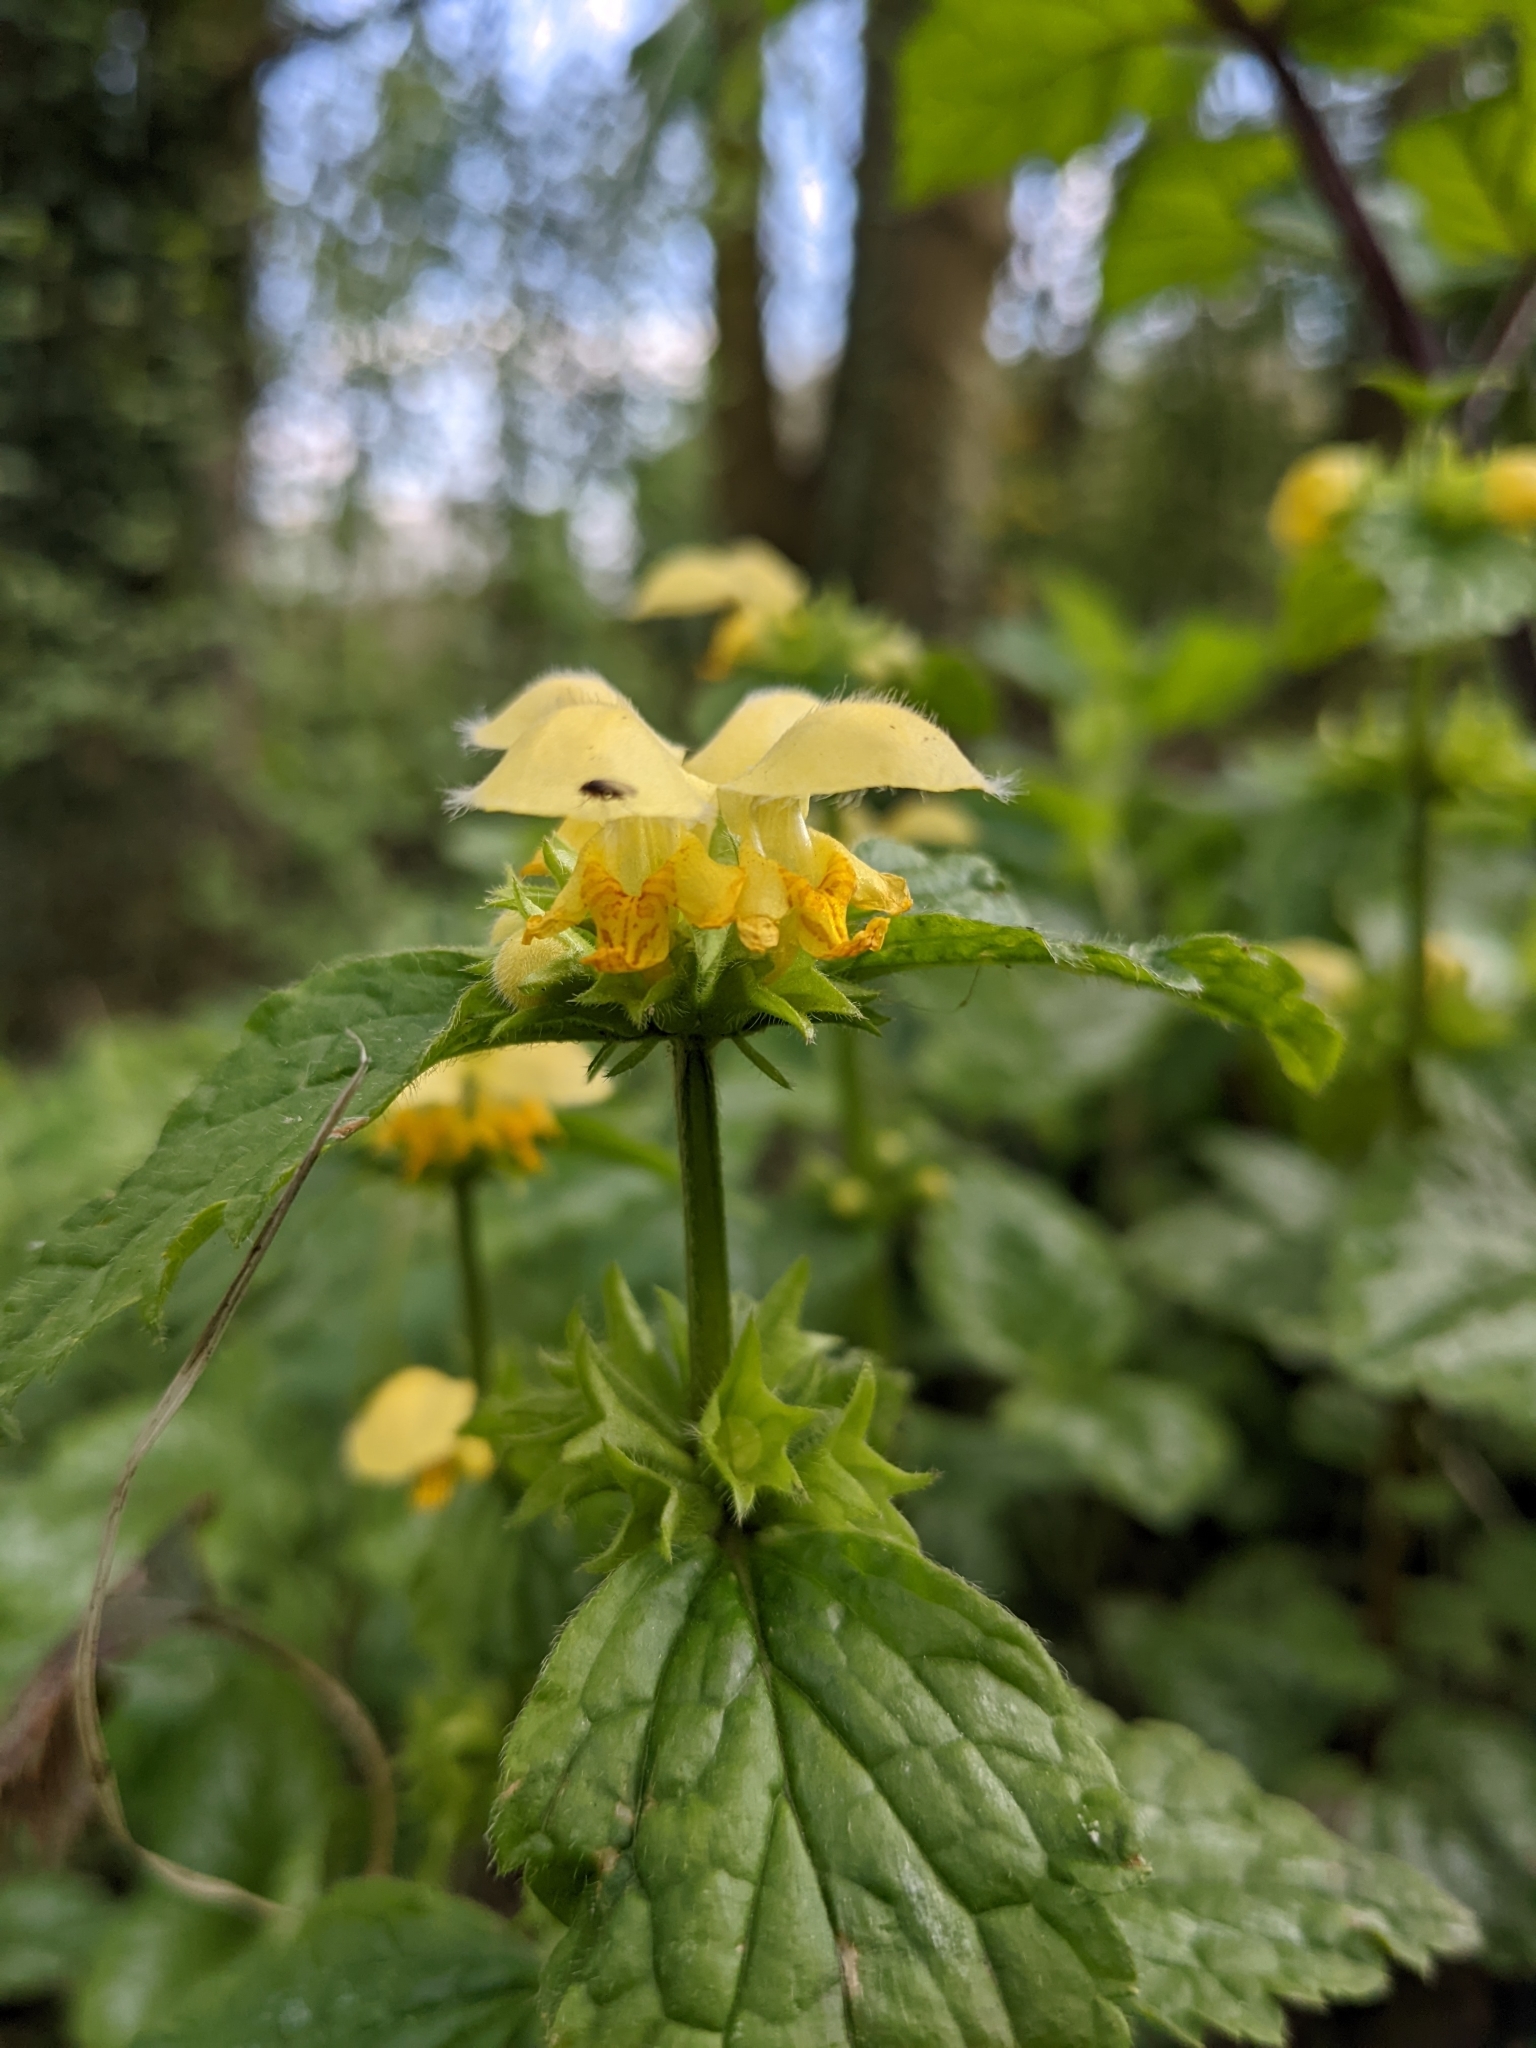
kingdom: Plantae
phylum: Tracheophyta
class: Magnoliopsida
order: Lamiales
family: Lamiaceae
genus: Lamium
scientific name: Lamium galeobdolon
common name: Yellow archangel
